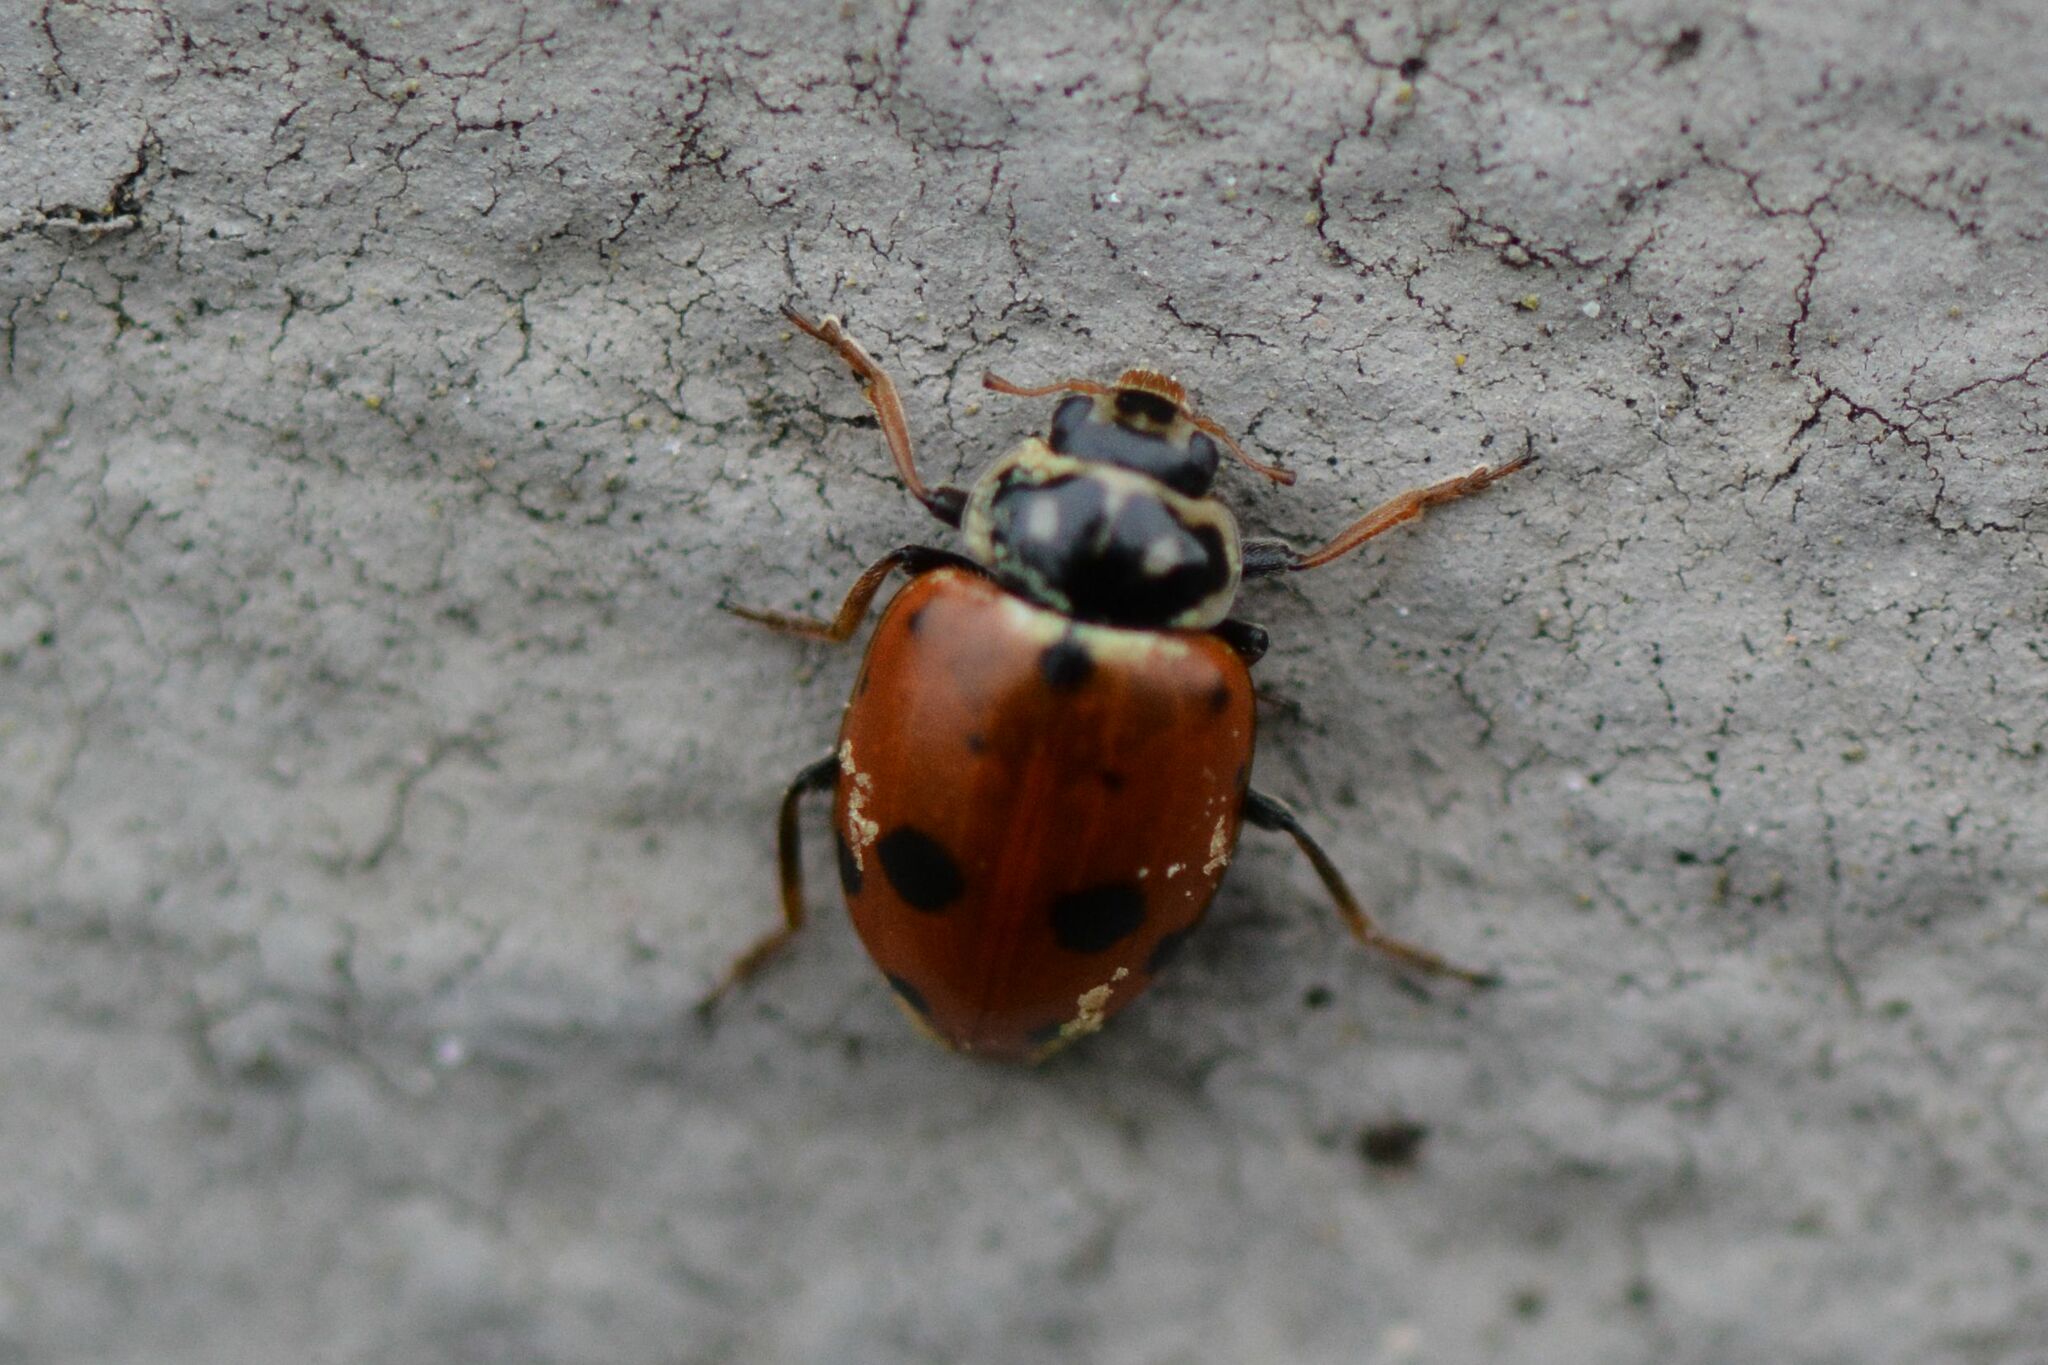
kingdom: Animalia
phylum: Arthropoda
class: Insecta
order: Coleoptera
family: Coccinellidae
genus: Hippodamia
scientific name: Hippodamia variegata
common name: Ladybird beetle
